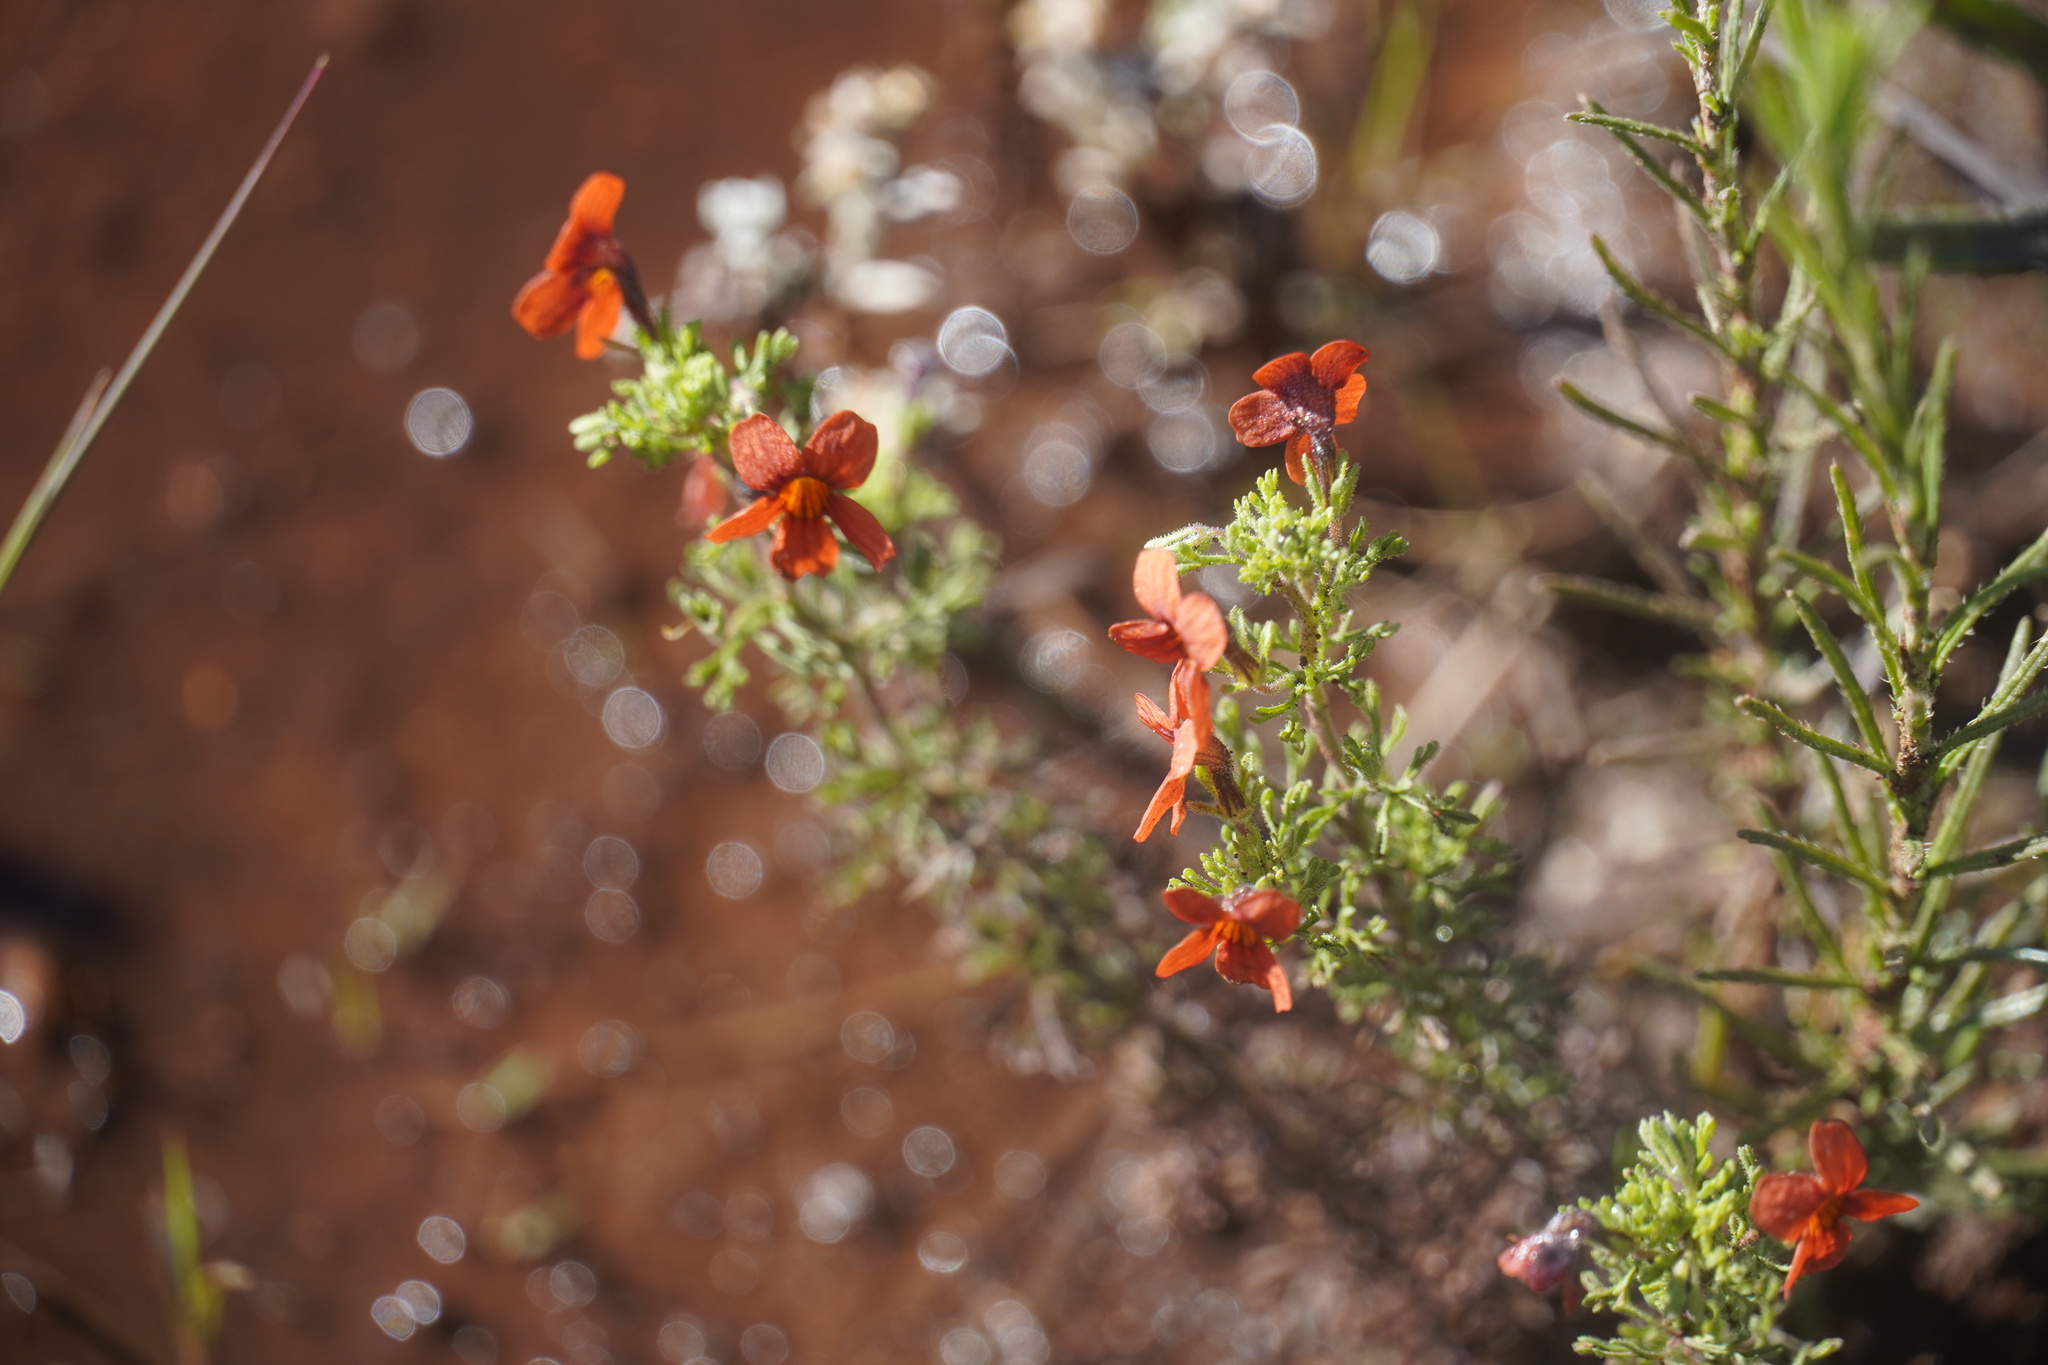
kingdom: Plantae
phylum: Tracheophyta
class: Magnoliopsida
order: Lamiales
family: Scrophulariaceae
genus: Jamesbrittenia
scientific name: Jamesbrittenia aurantiaca
